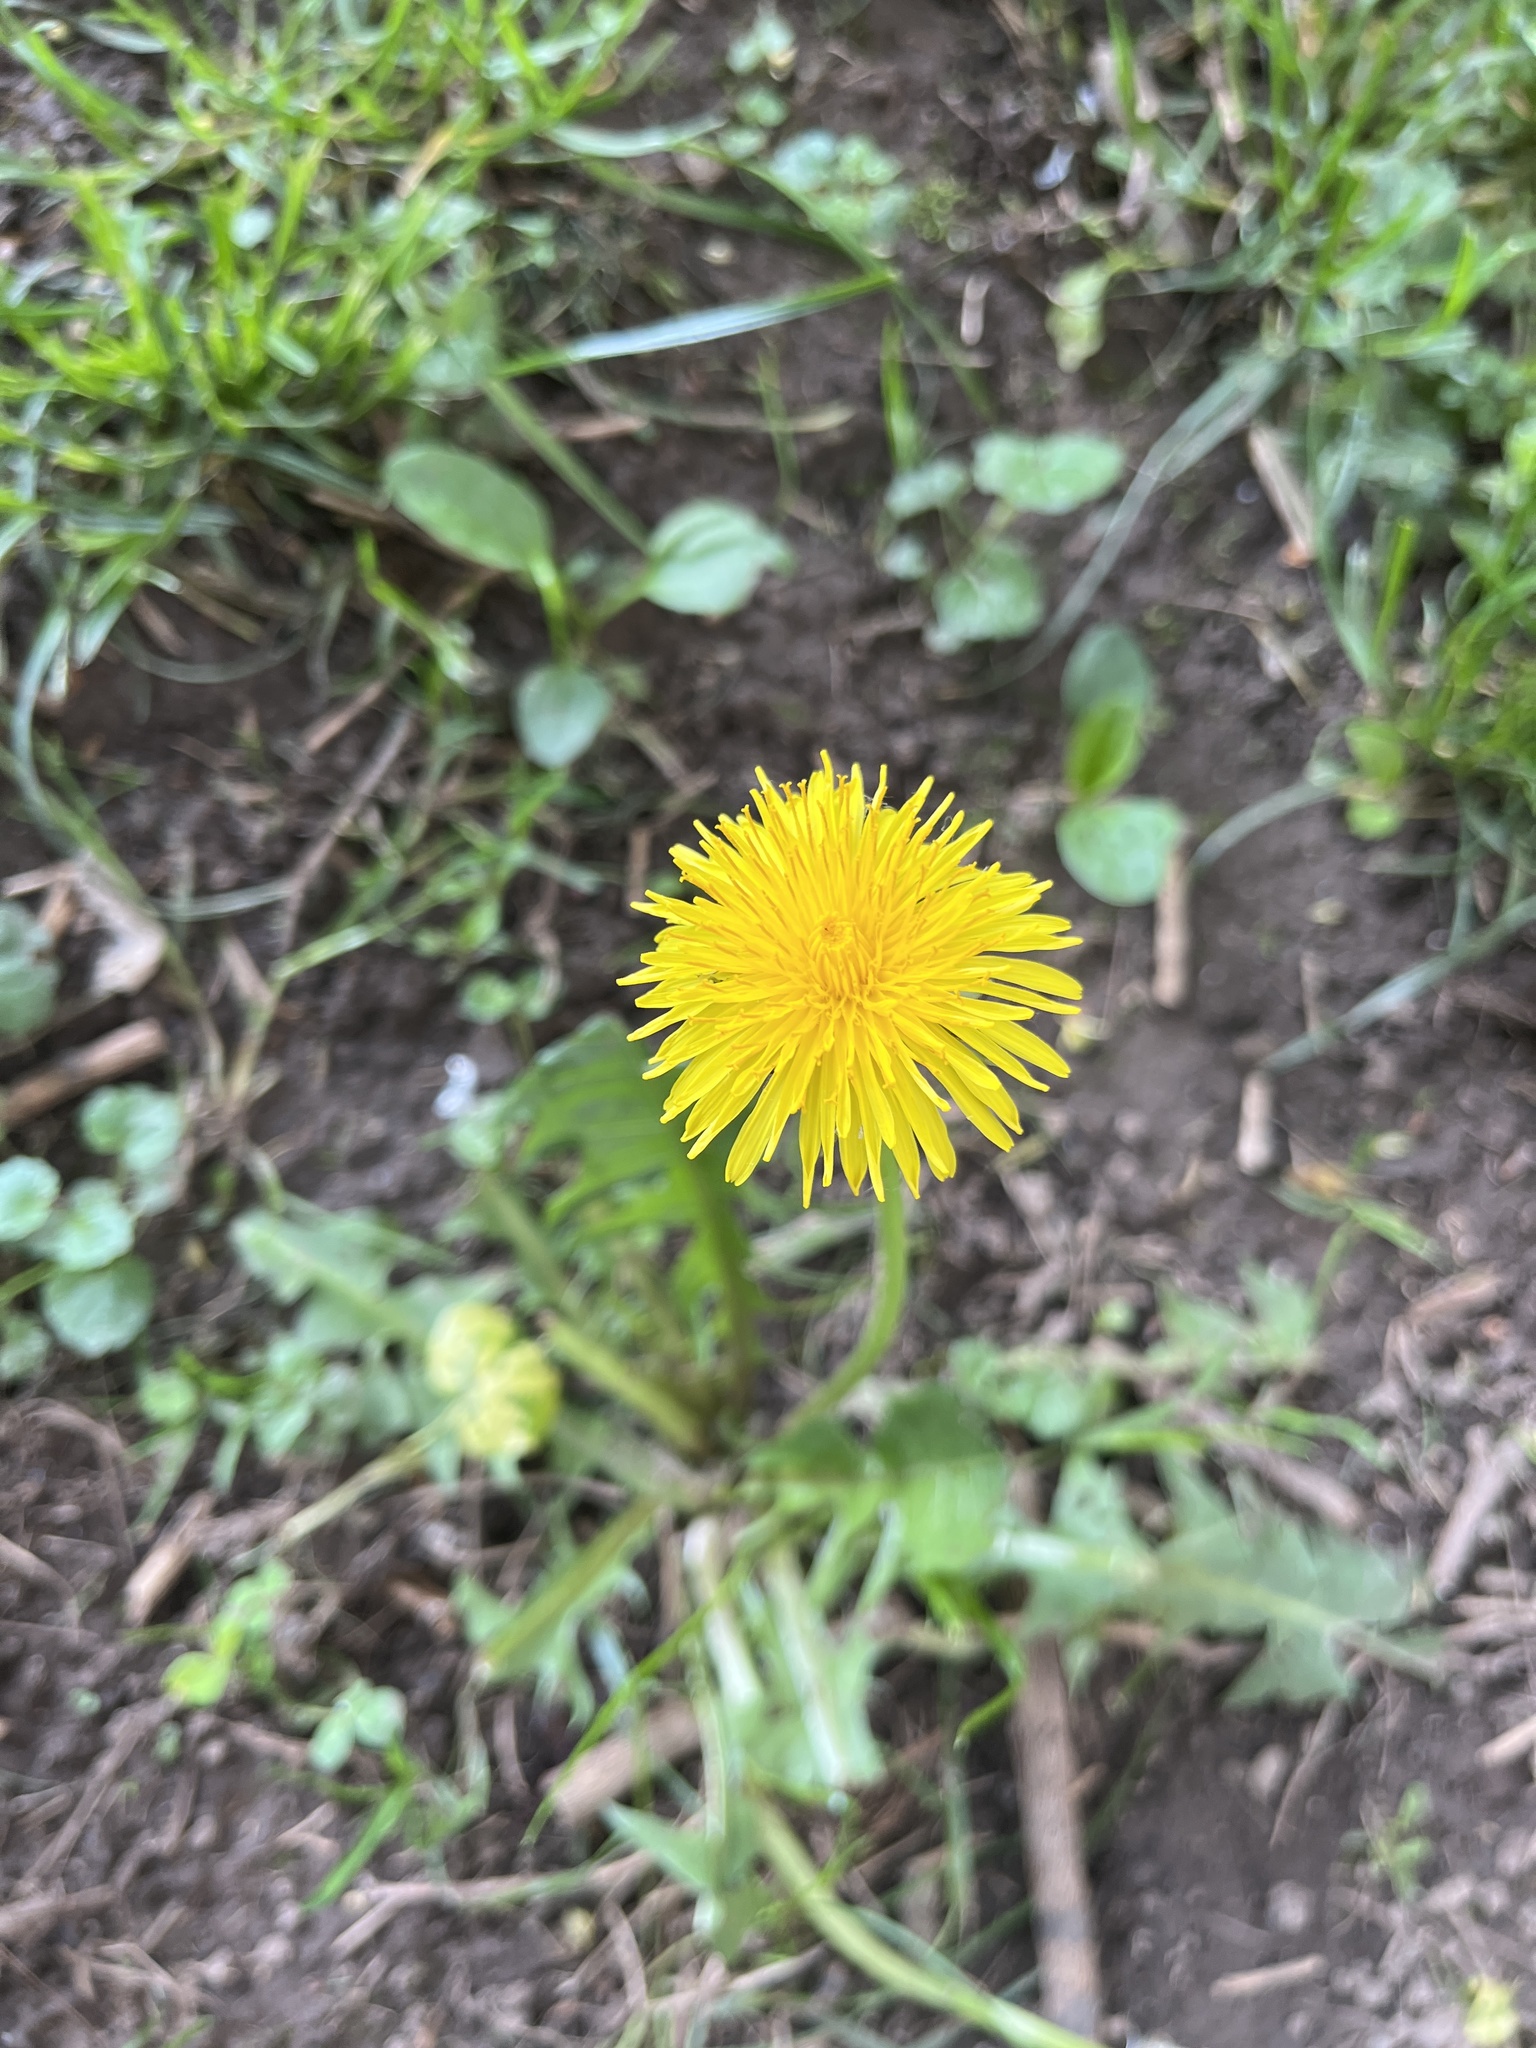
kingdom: Plantae
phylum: Tracheophyta
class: Magnoliopsida
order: Asterales
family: Asteraceae
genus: Taraxacum
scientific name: Taraxacum officinale
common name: Common dandelion
